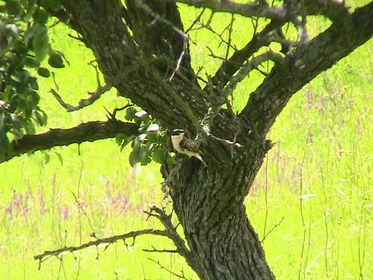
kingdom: Animalia
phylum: Chordata
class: Aves
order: Passeriformes
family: Muscicapidae
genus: Saxicola
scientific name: Saxicola rubetra
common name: Whinchat
